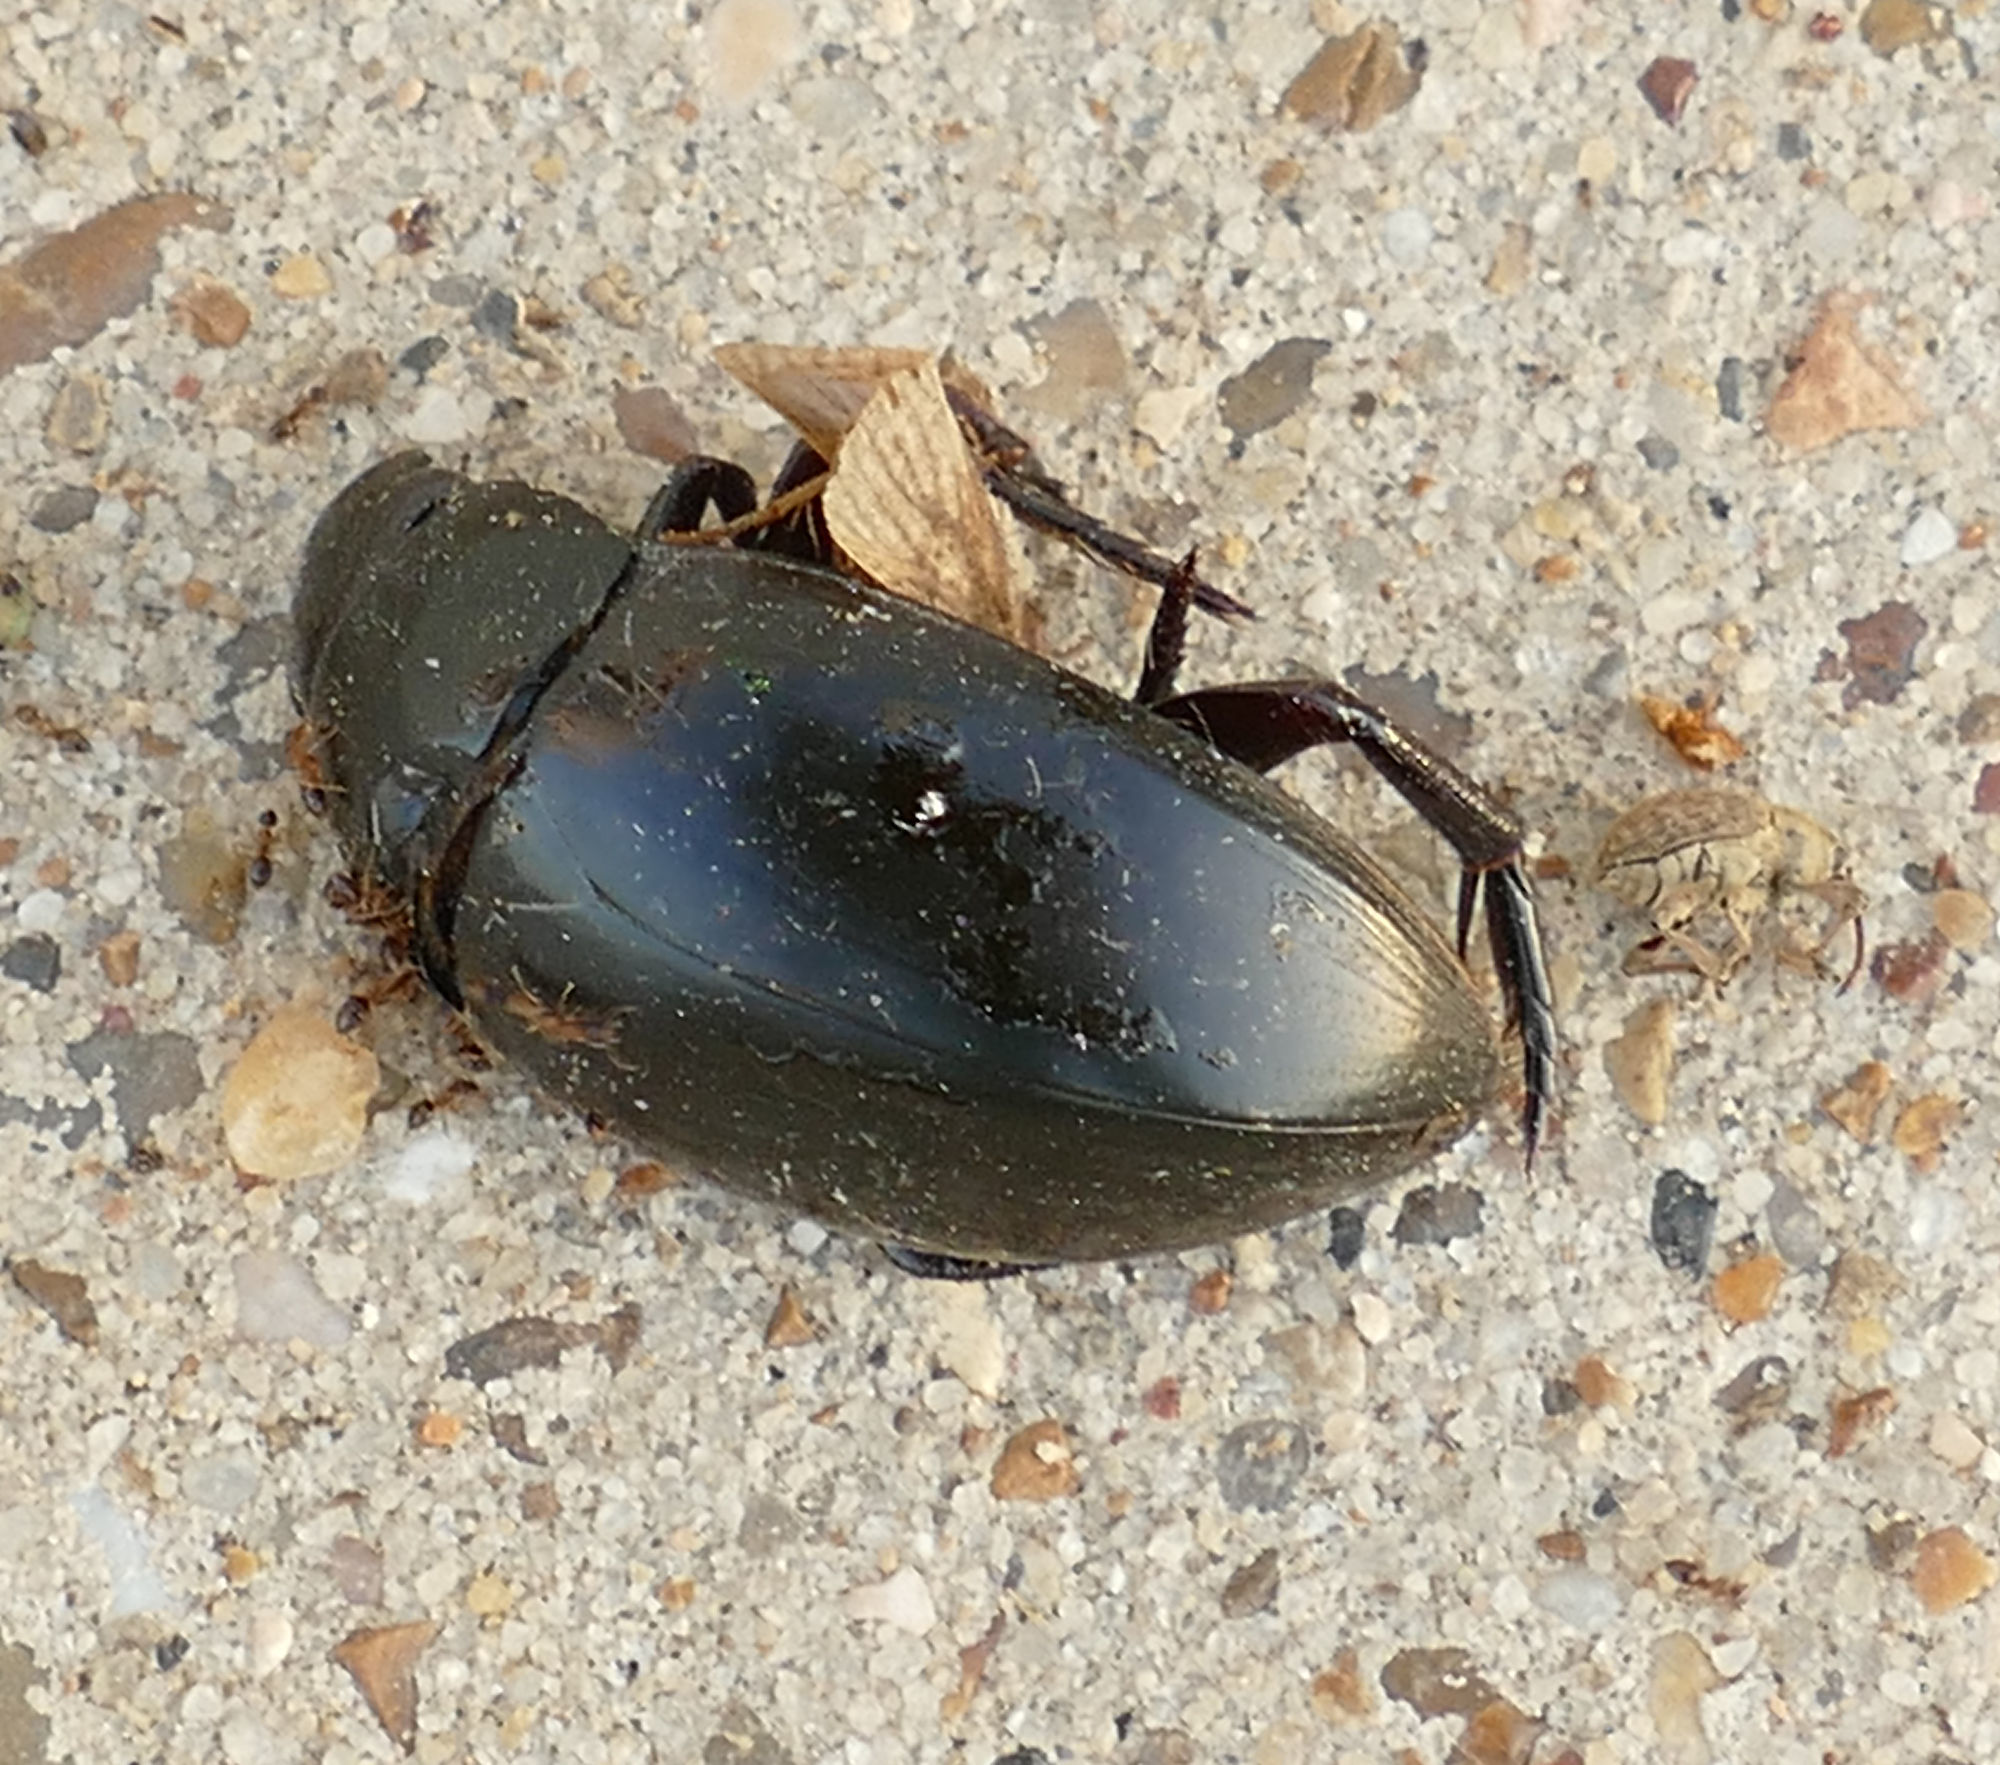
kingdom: Animalia
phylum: Arthropoda
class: Insecta
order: Coleoptera
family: Hydrophilidae
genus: Hydrophilus
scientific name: Hydrophilus ovatus
